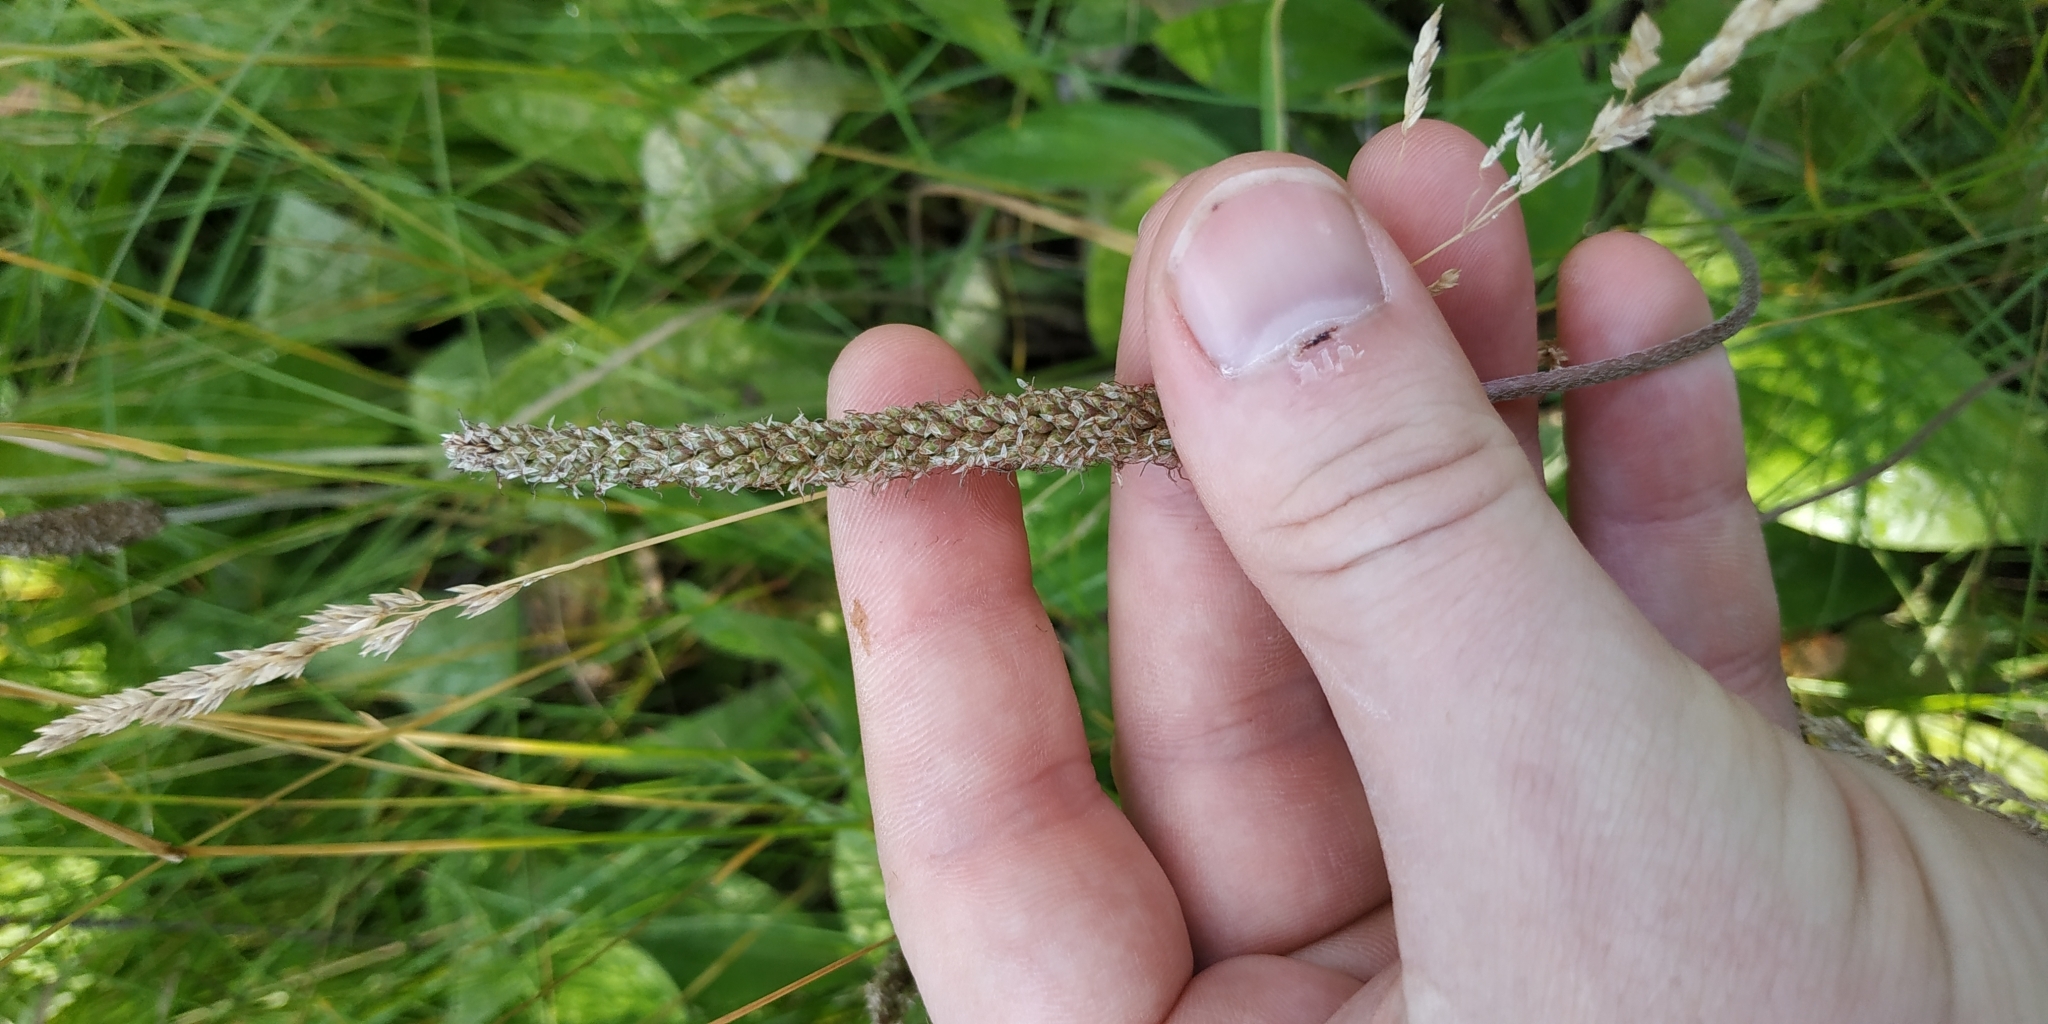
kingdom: Plantae
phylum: Tracheophyta
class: Magnoliopsida
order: Lamiales
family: Plantaginaceae
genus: Plantago
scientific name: Plantago media
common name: Hoary plantain
